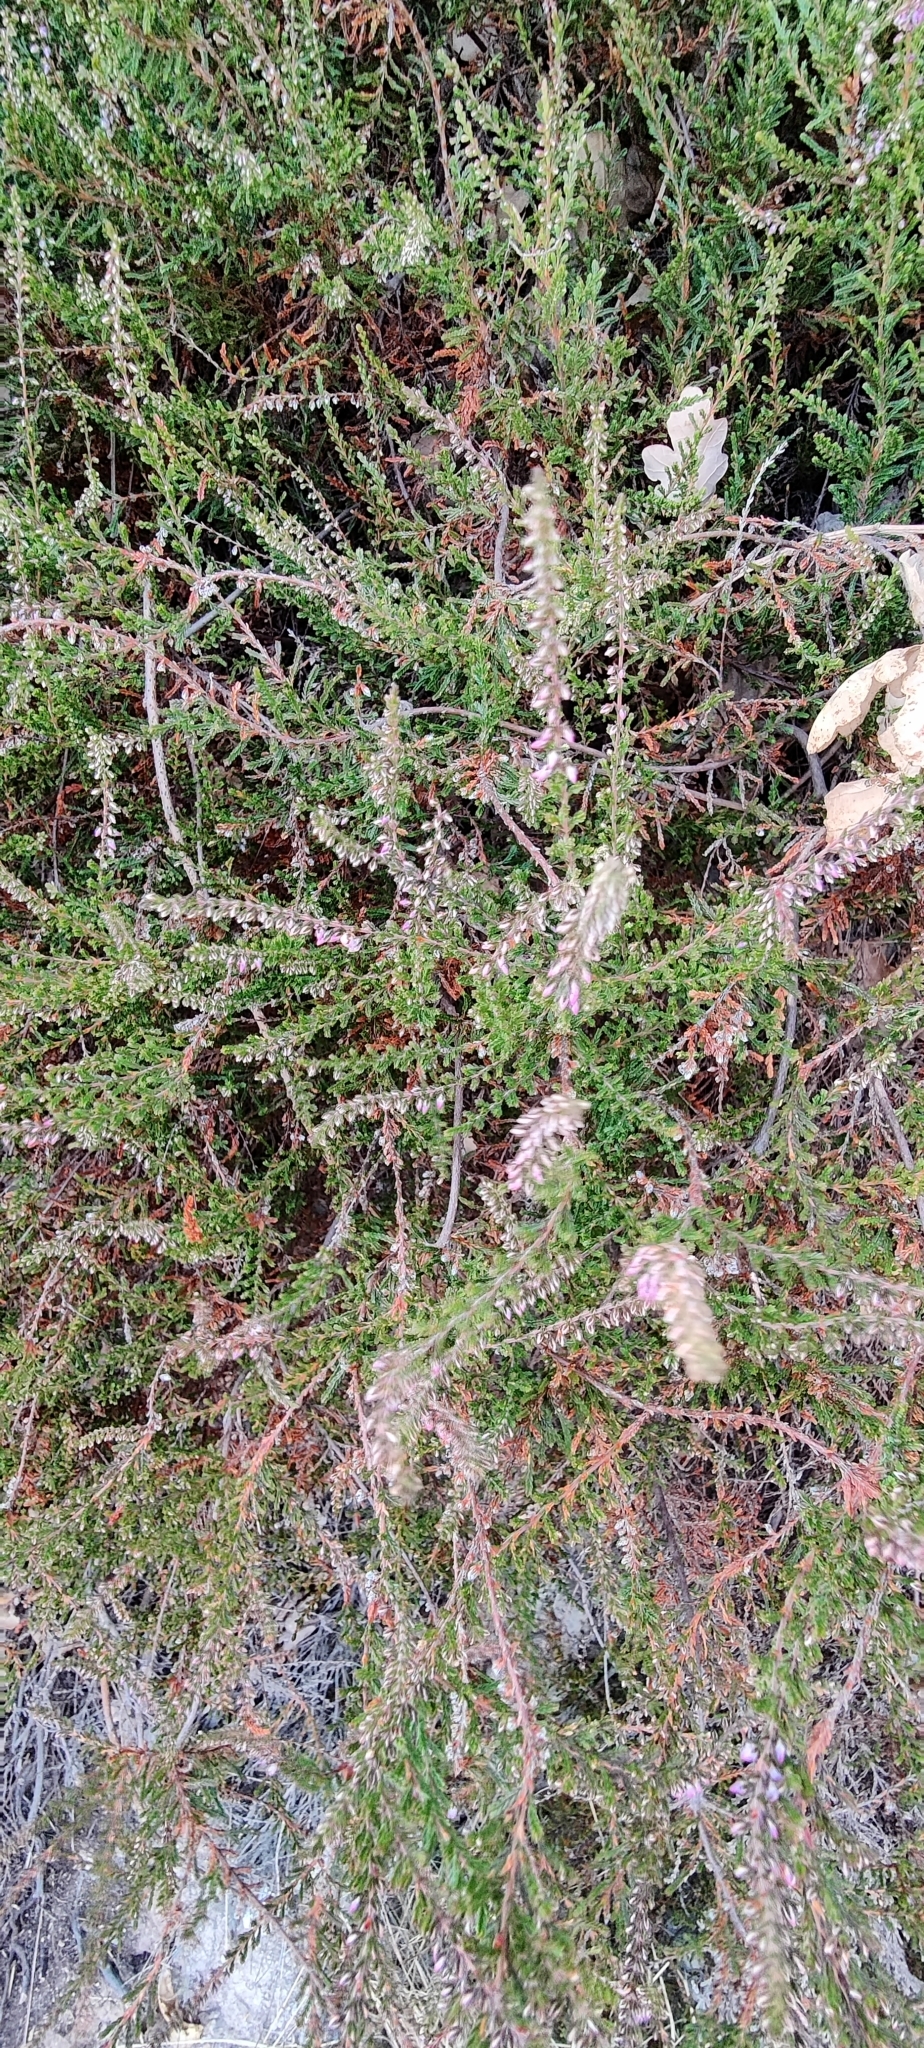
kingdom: Plantae
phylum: Tracheophyta
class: Magnoliopsida
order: Ericales
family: Ericaceae
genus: Calluna
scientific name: Calluna vulgaris
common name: Heather
